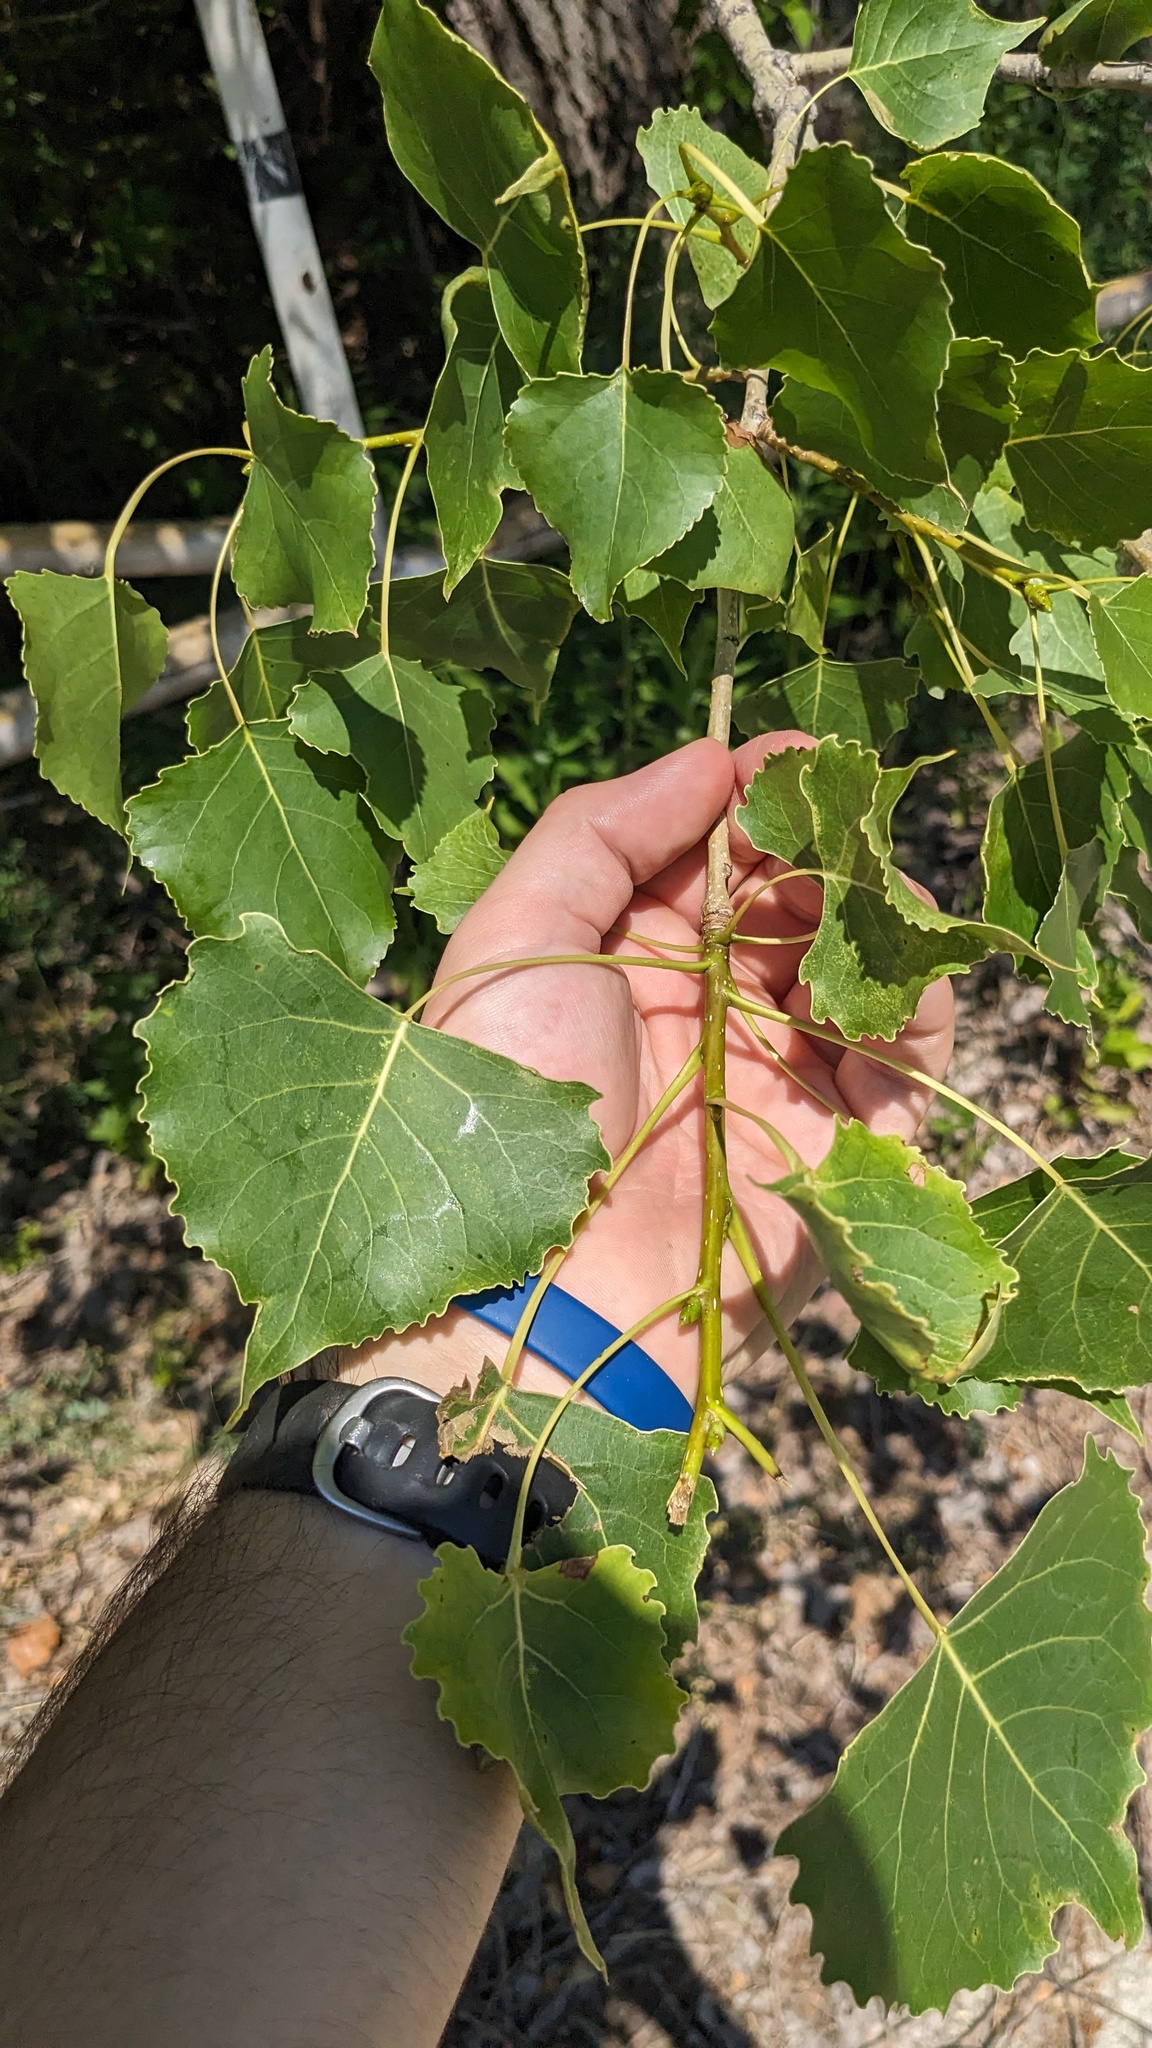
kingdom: Plantae
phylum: Tracheophyta
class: Magnoliopsida
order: Malpighiales
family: Salicaceae
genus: Populus
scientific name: Populus deltoides
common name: Eastern cottonwood
